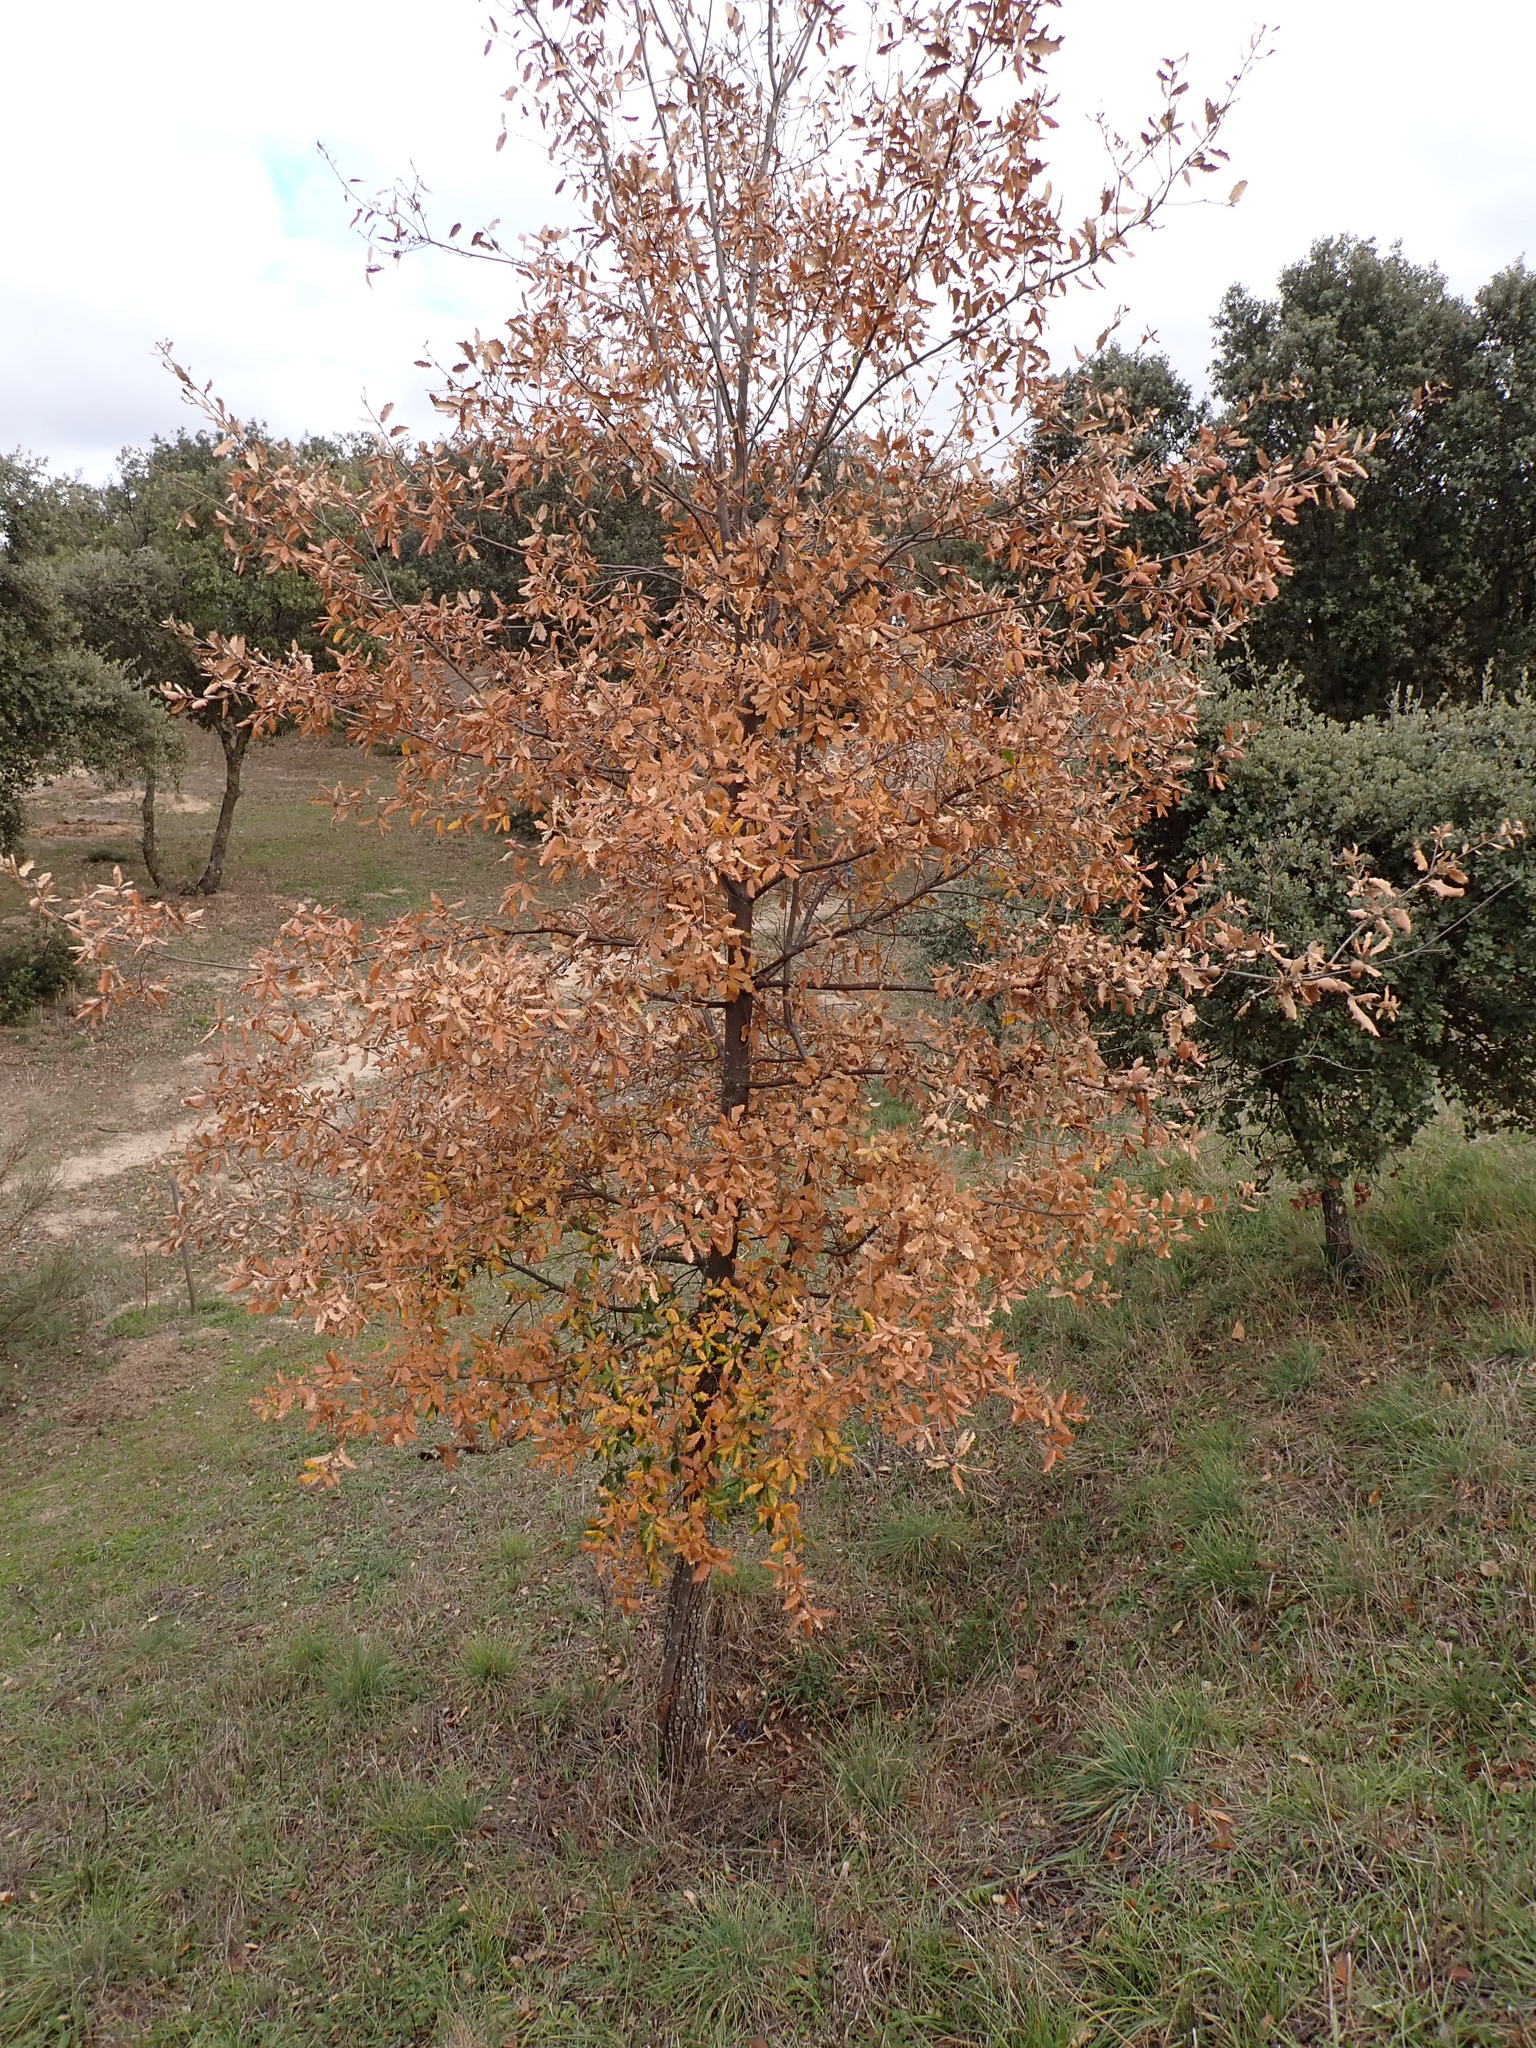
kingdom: Plantae
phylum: Tracheophyta
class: Magnoliopsida
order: Fagales
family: Fagaceae
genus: Quercus
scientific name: Quercus faginea
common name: Gall oak tree
